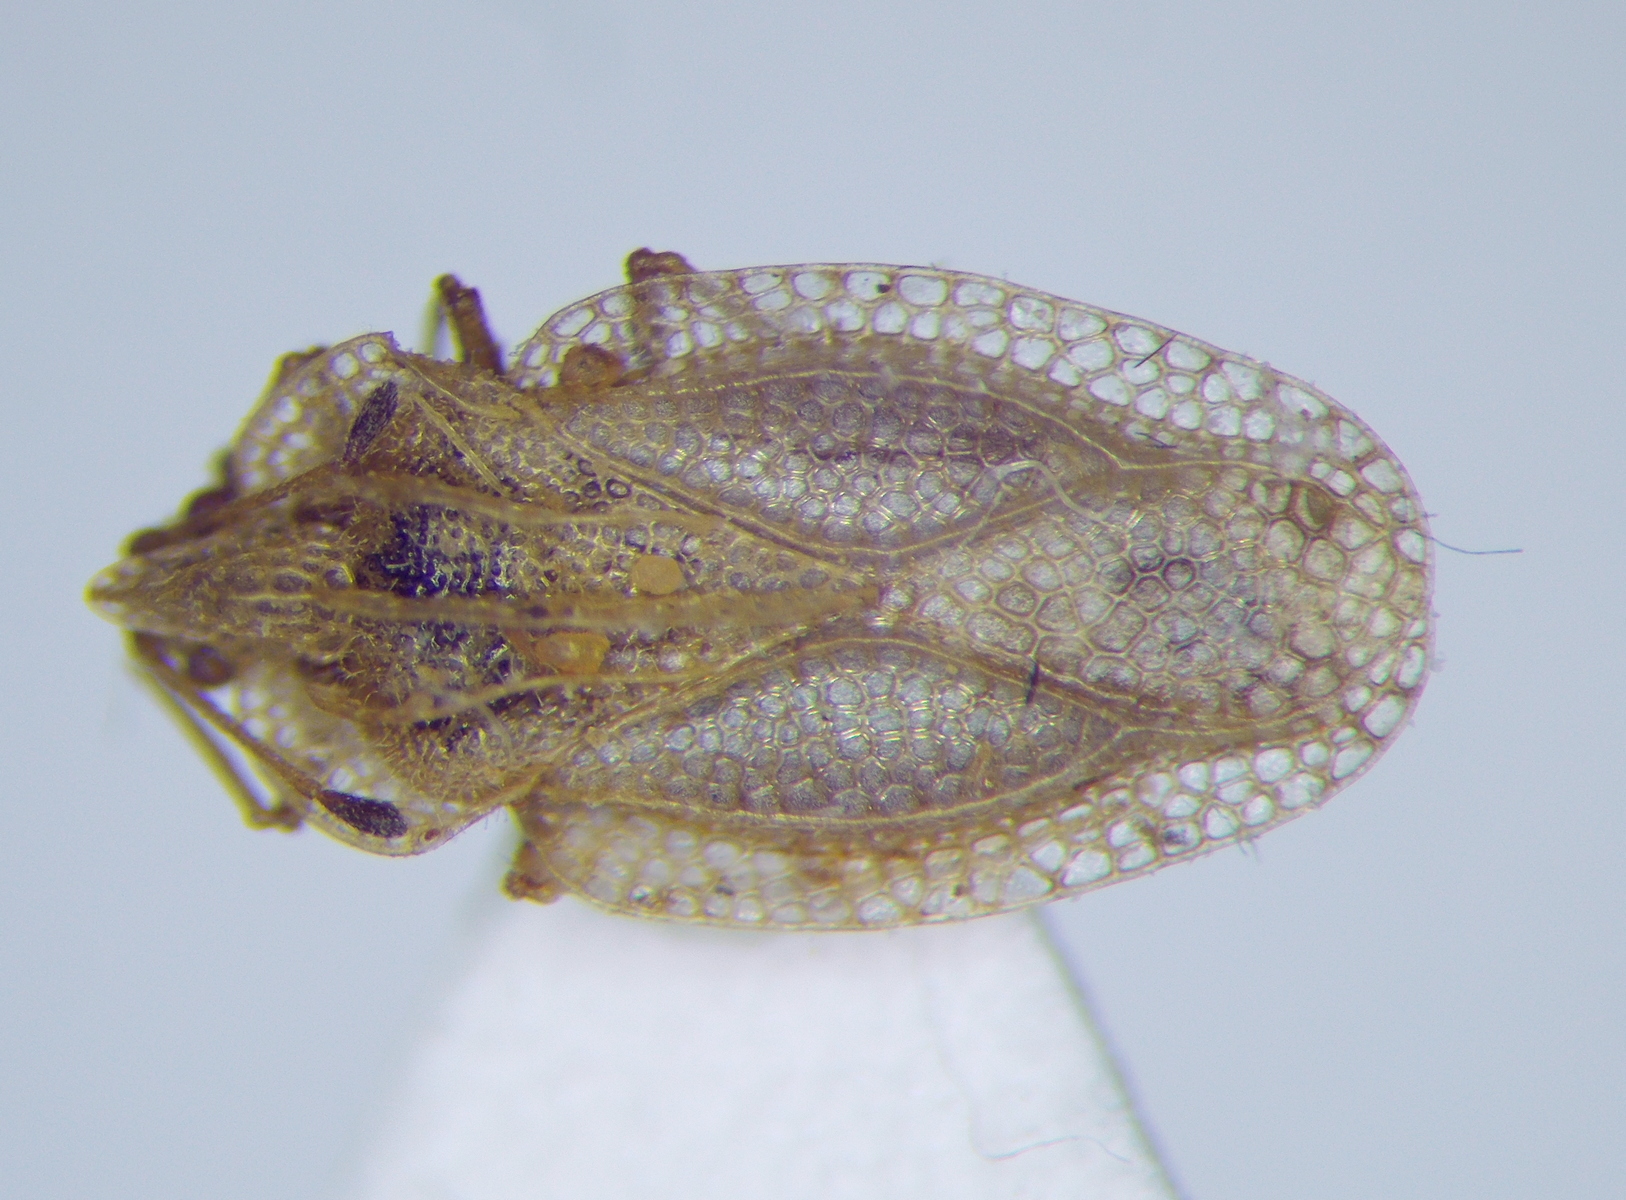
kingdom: Plantae
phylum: Tracheophyta
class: Liliopsida
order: Poales
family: Juncaceae
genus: Elasmotropis
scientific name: Elasmotropis testacea
